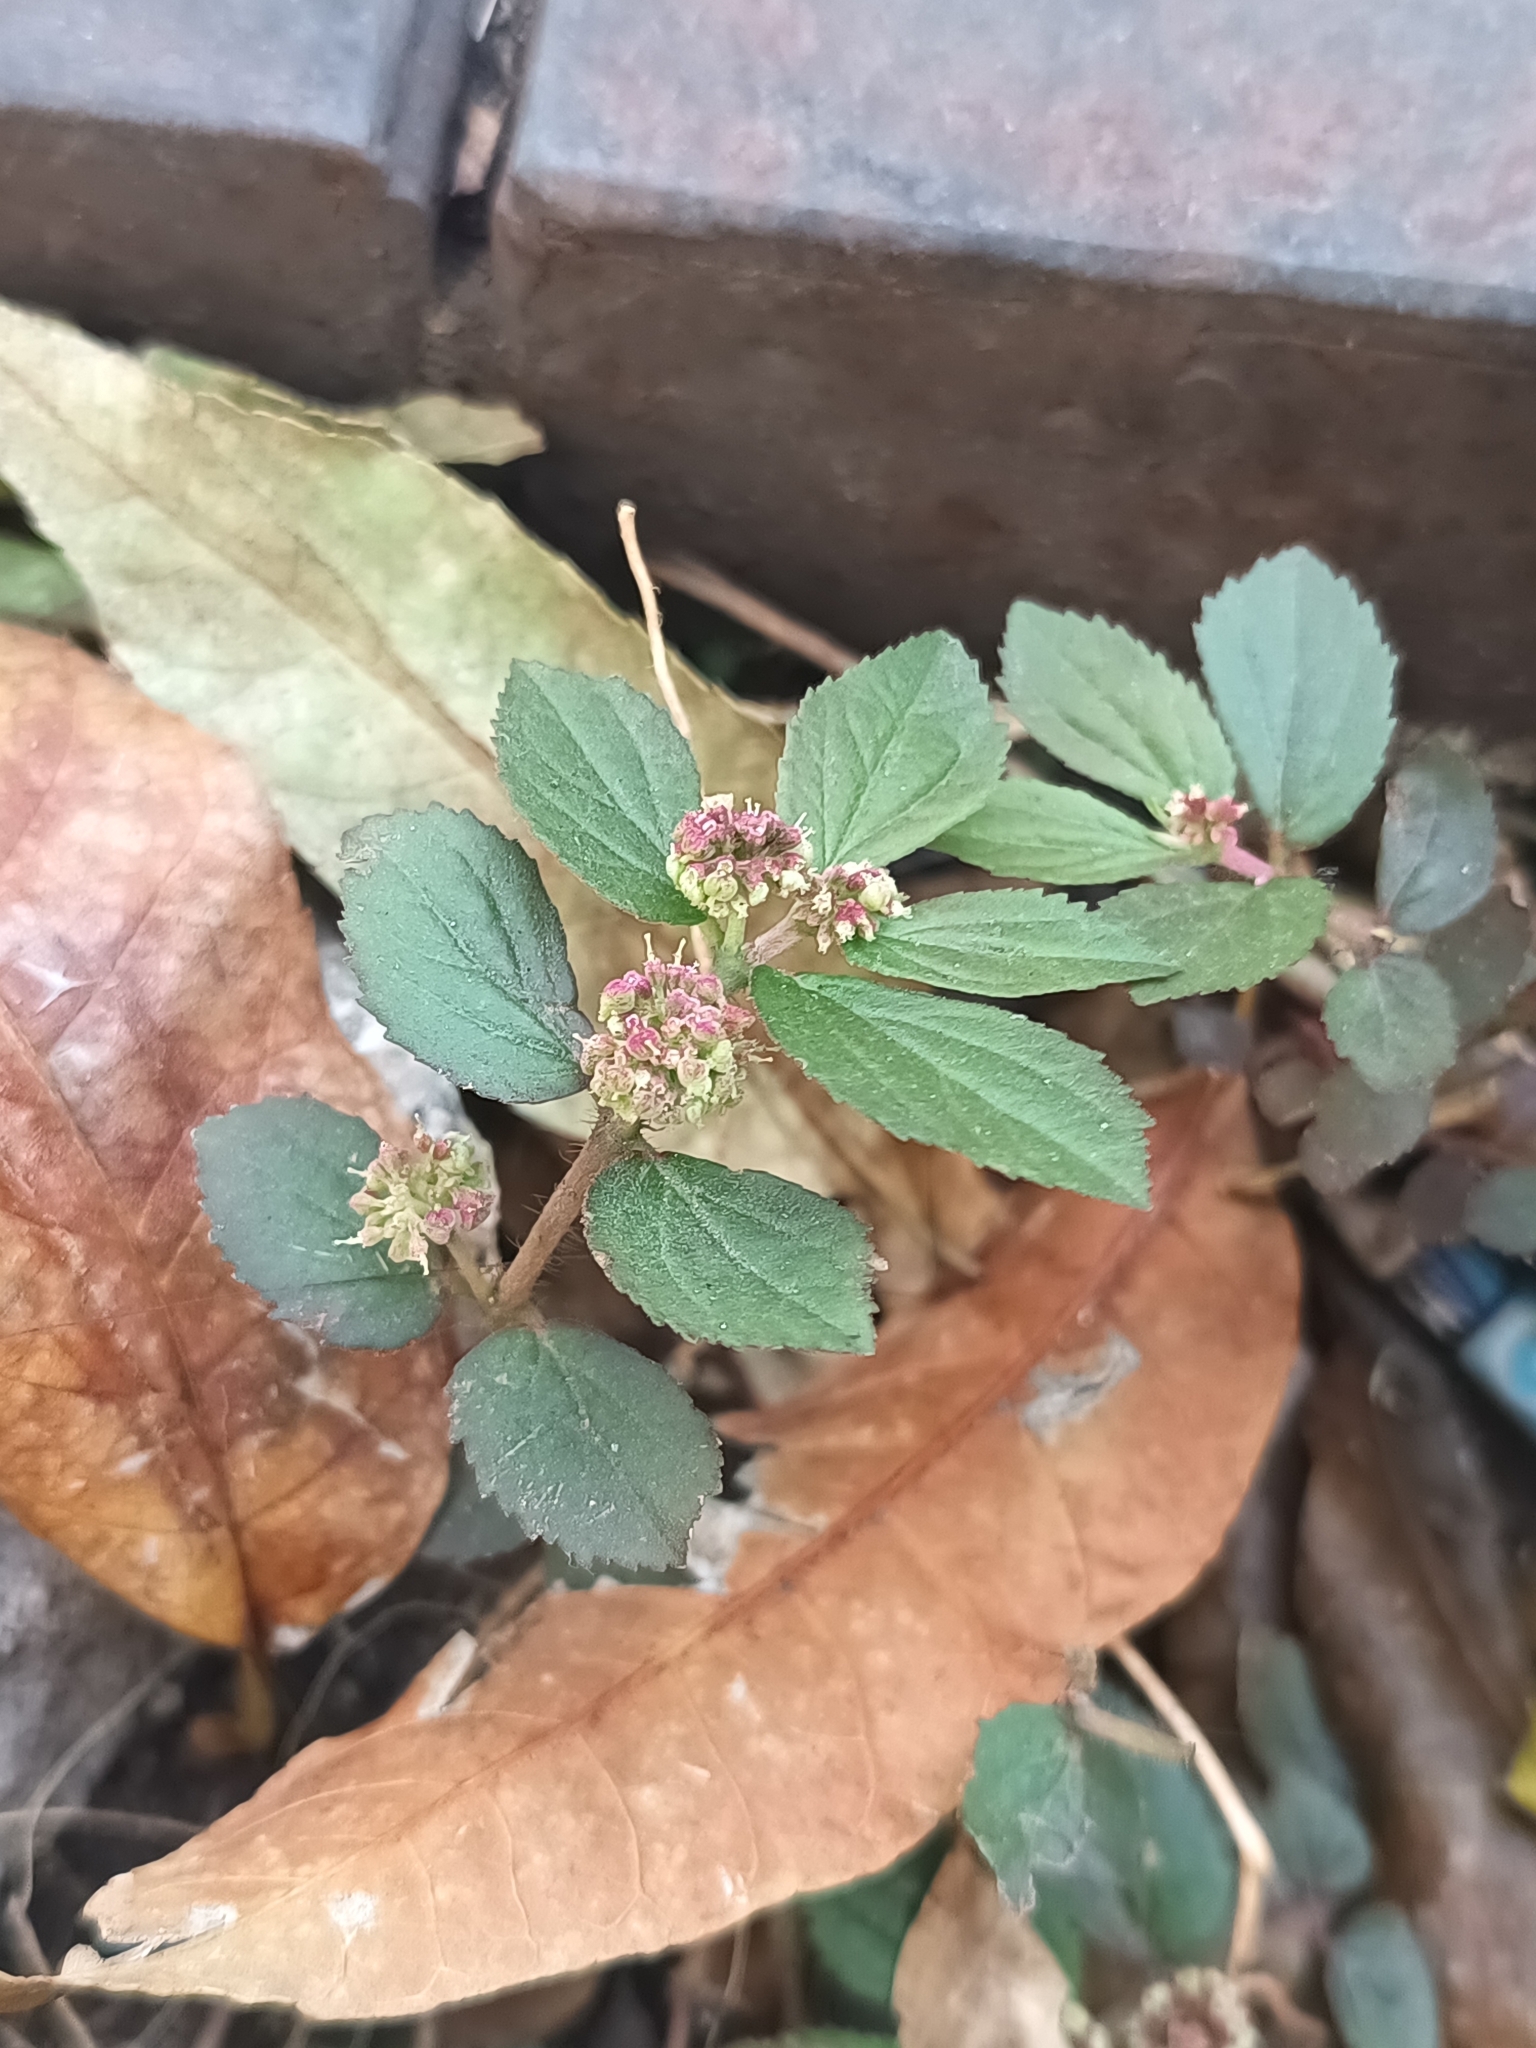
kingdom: Plantae
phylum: Tracheophyta
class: Magnoliopsida
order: Malpighiales
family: Euphorbiaceae
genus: Euphorbia
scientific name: Euphorbia hirta
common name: Pillpod sandmat
